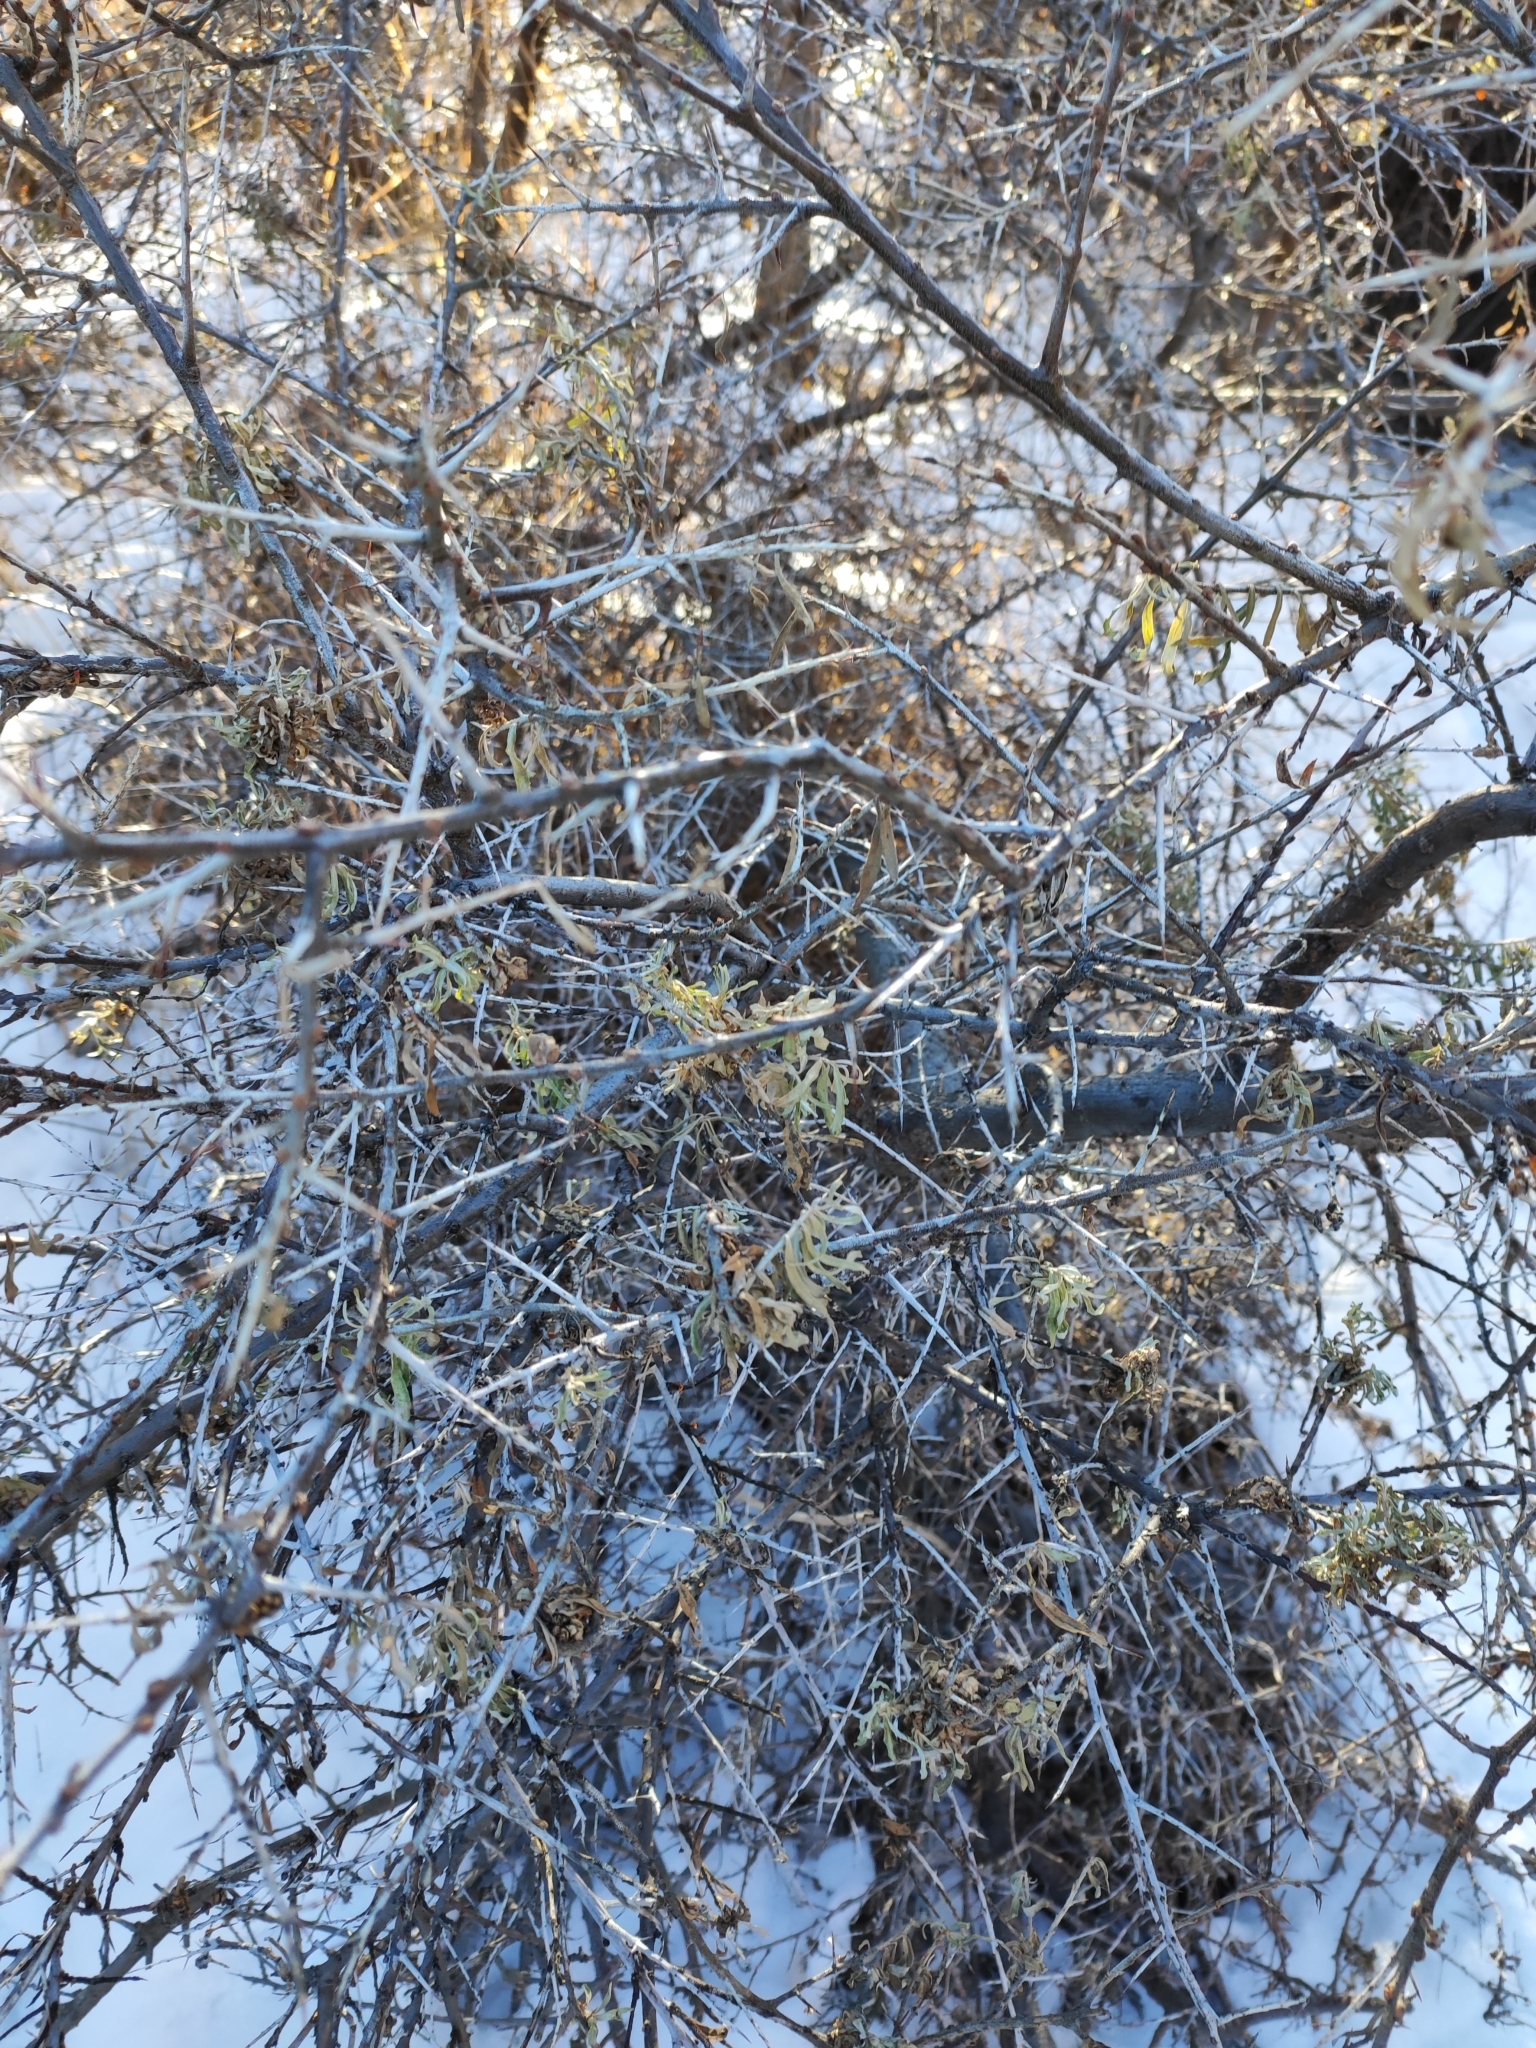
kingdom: Plantae
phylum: Tracheophyta
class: Magnoliopsida
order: Rosales
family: Elaeagnaceae
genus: Hippophae
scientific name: Hippophae rhamnoides
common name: Sea-buckthorn
